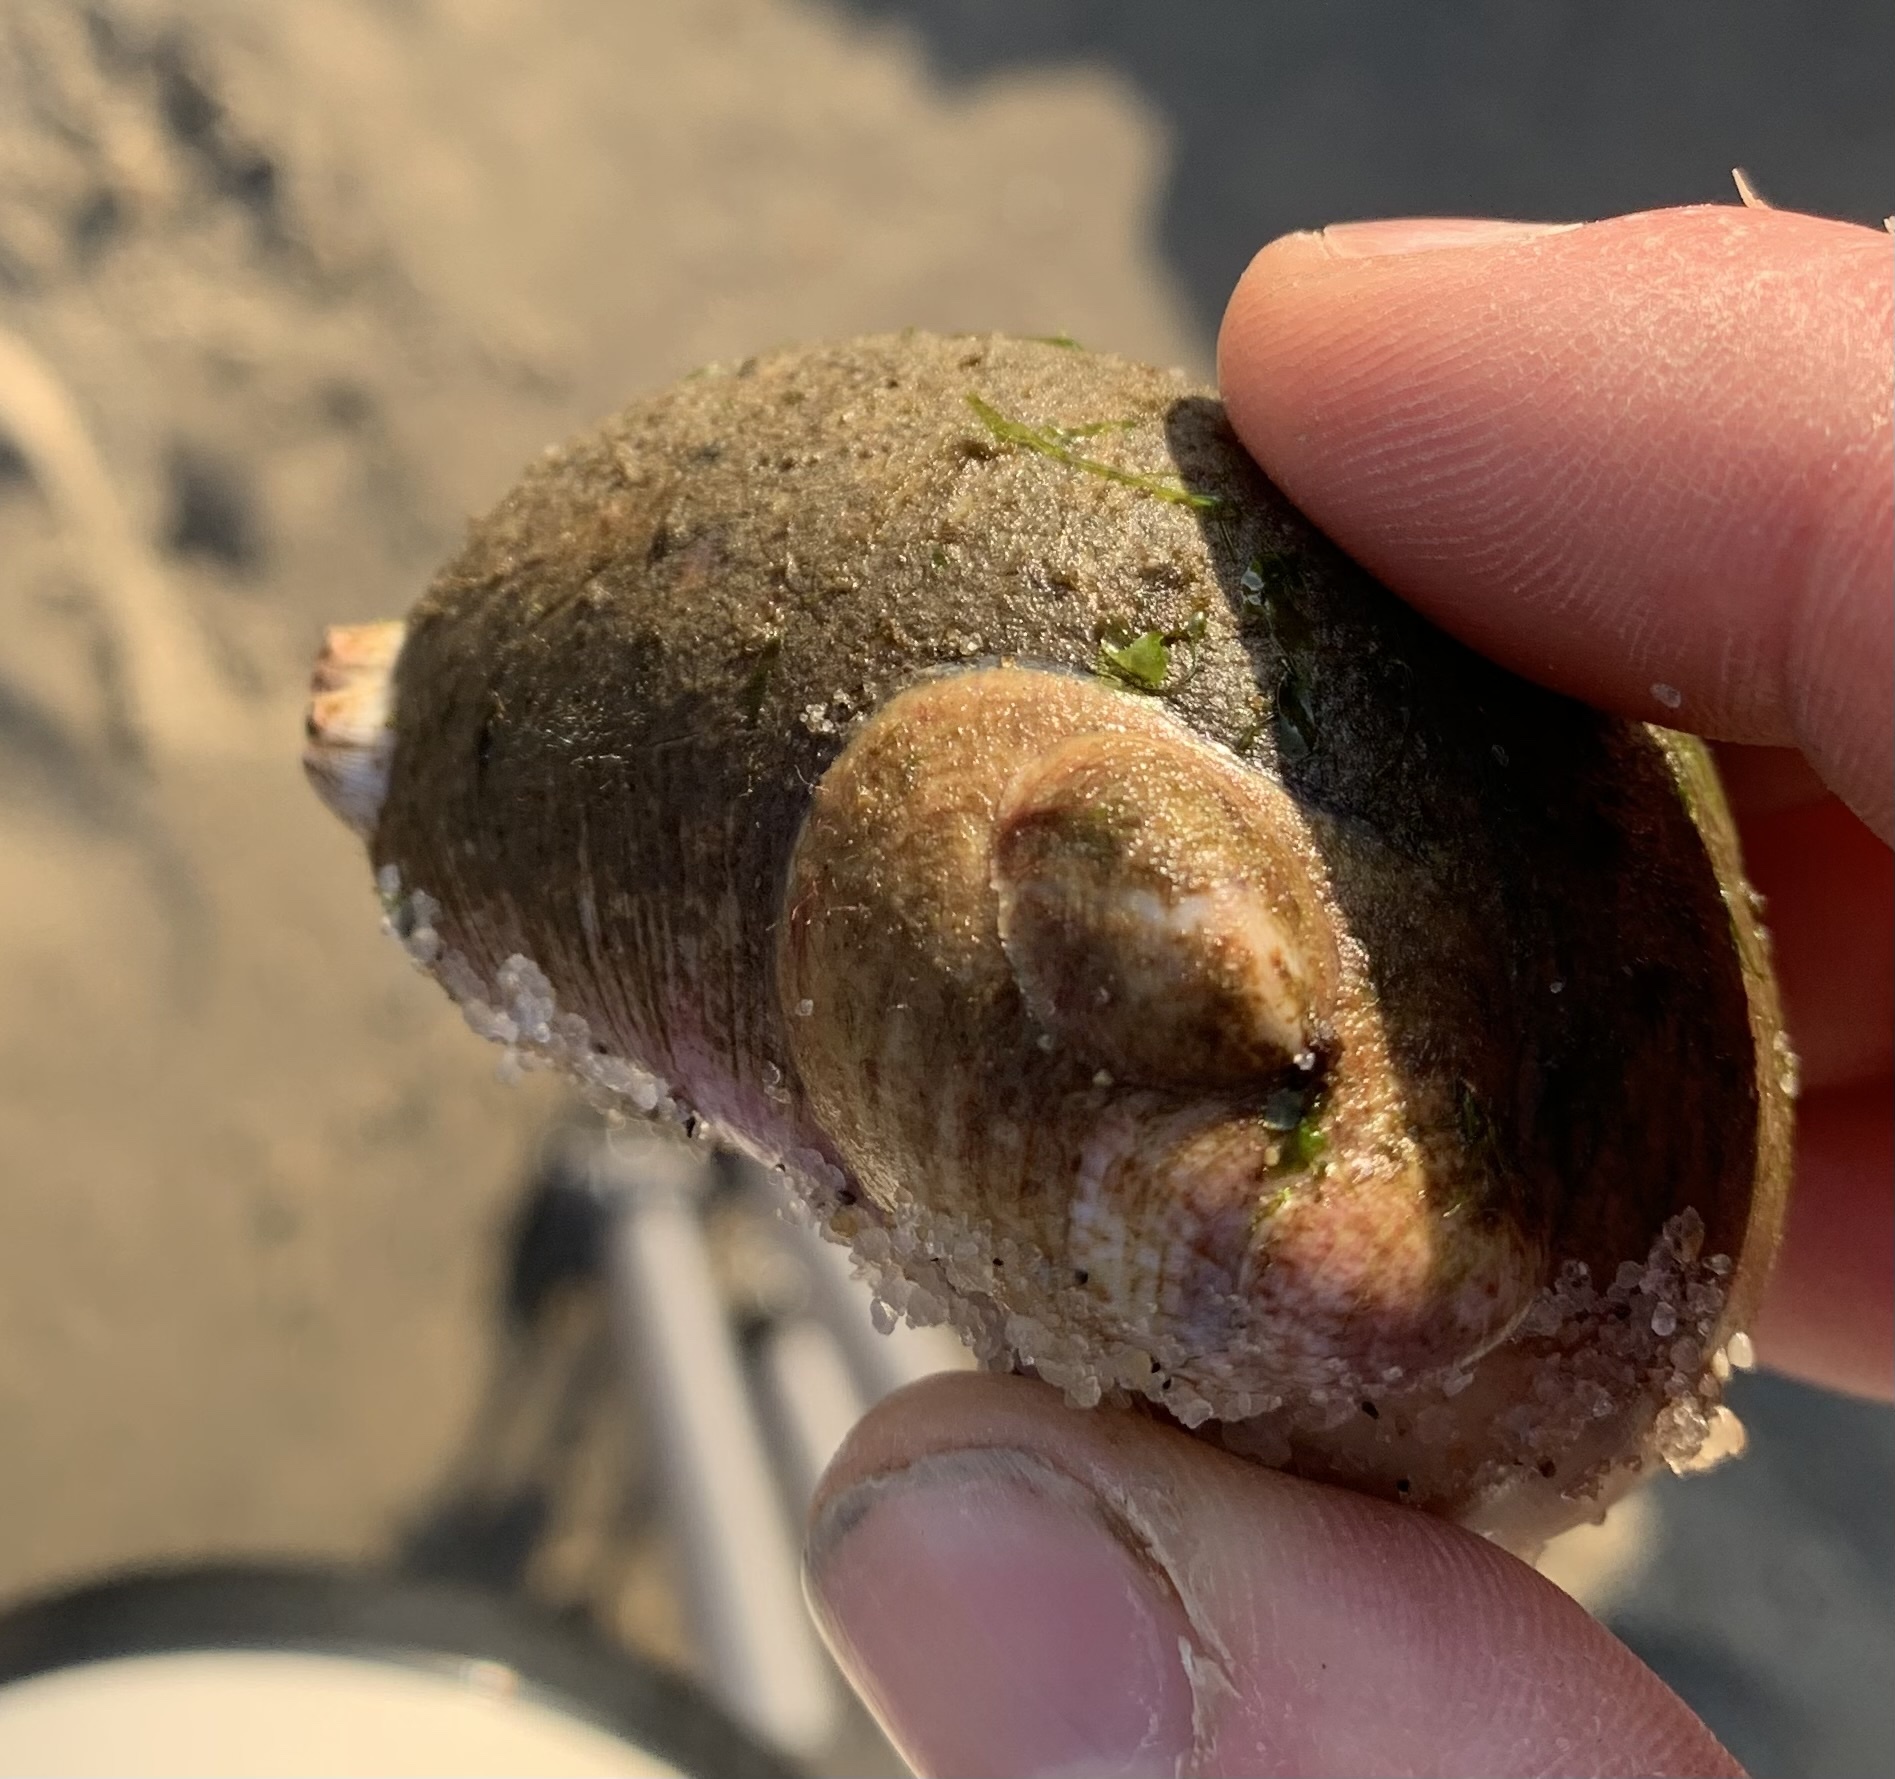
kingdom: Animalia
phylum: Arthropoda
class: Malacostraca
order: Decapoda
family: Paguridae
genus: Pagurus
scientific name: Pagurus pollicaris
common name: Flatclaw hermit
